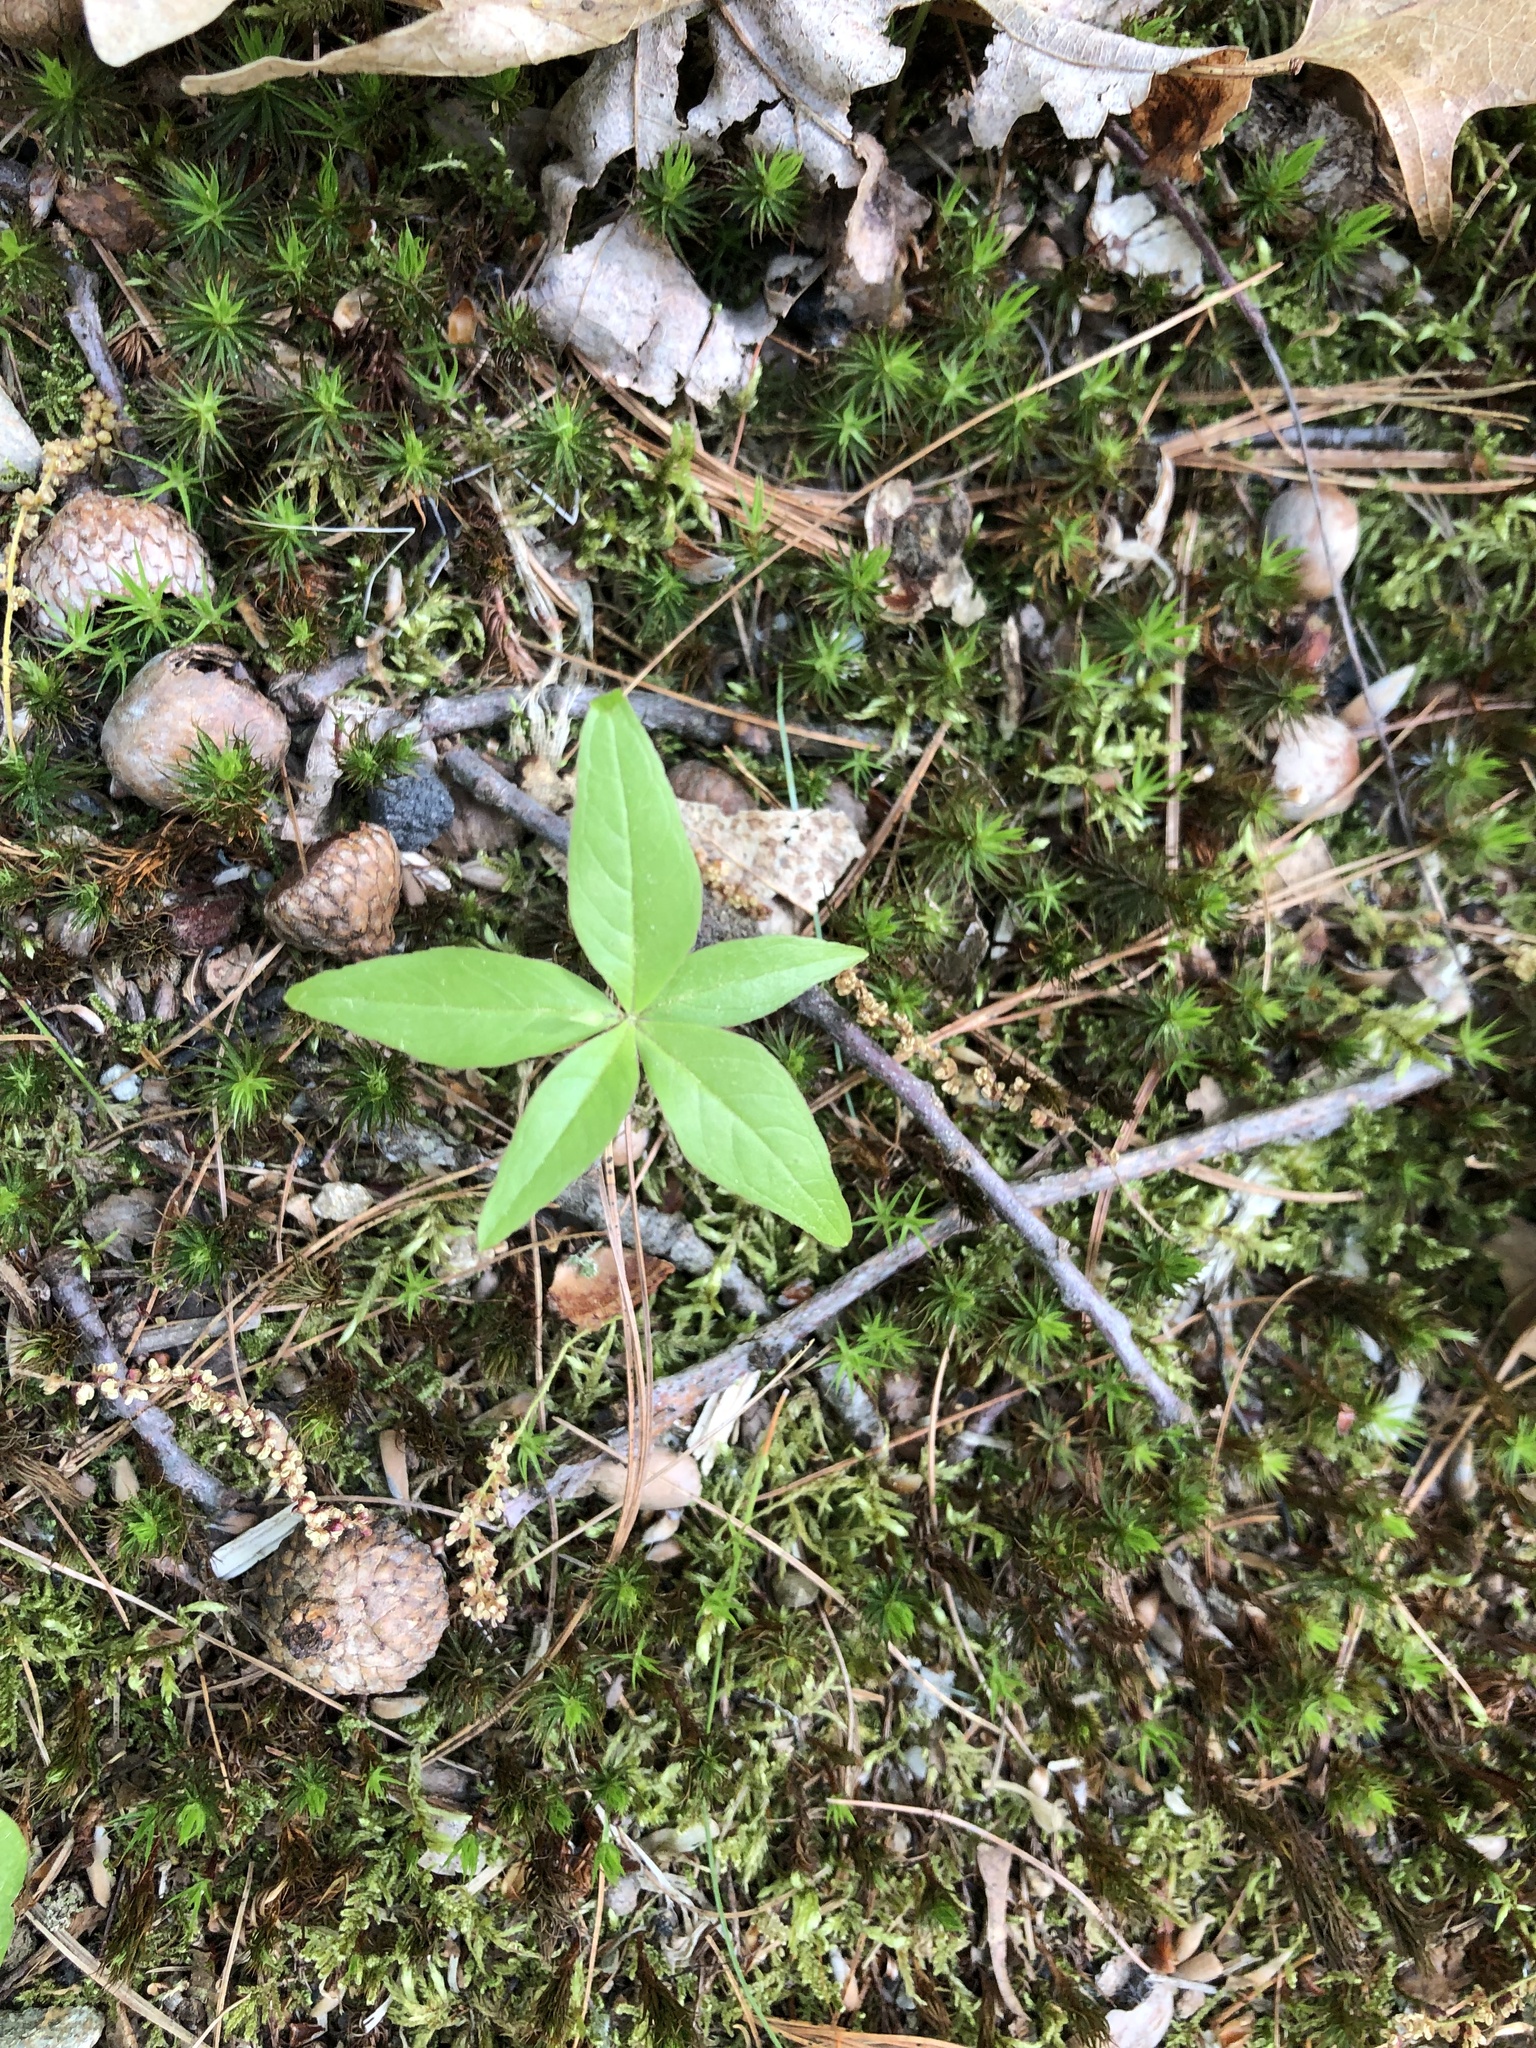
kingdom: Plantae
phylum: Tracheophyta
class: Magnoliopsida
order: Ericales
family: Primulaceae
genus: Lysimachia
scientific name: Lysimachia borealis
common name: American starflower
